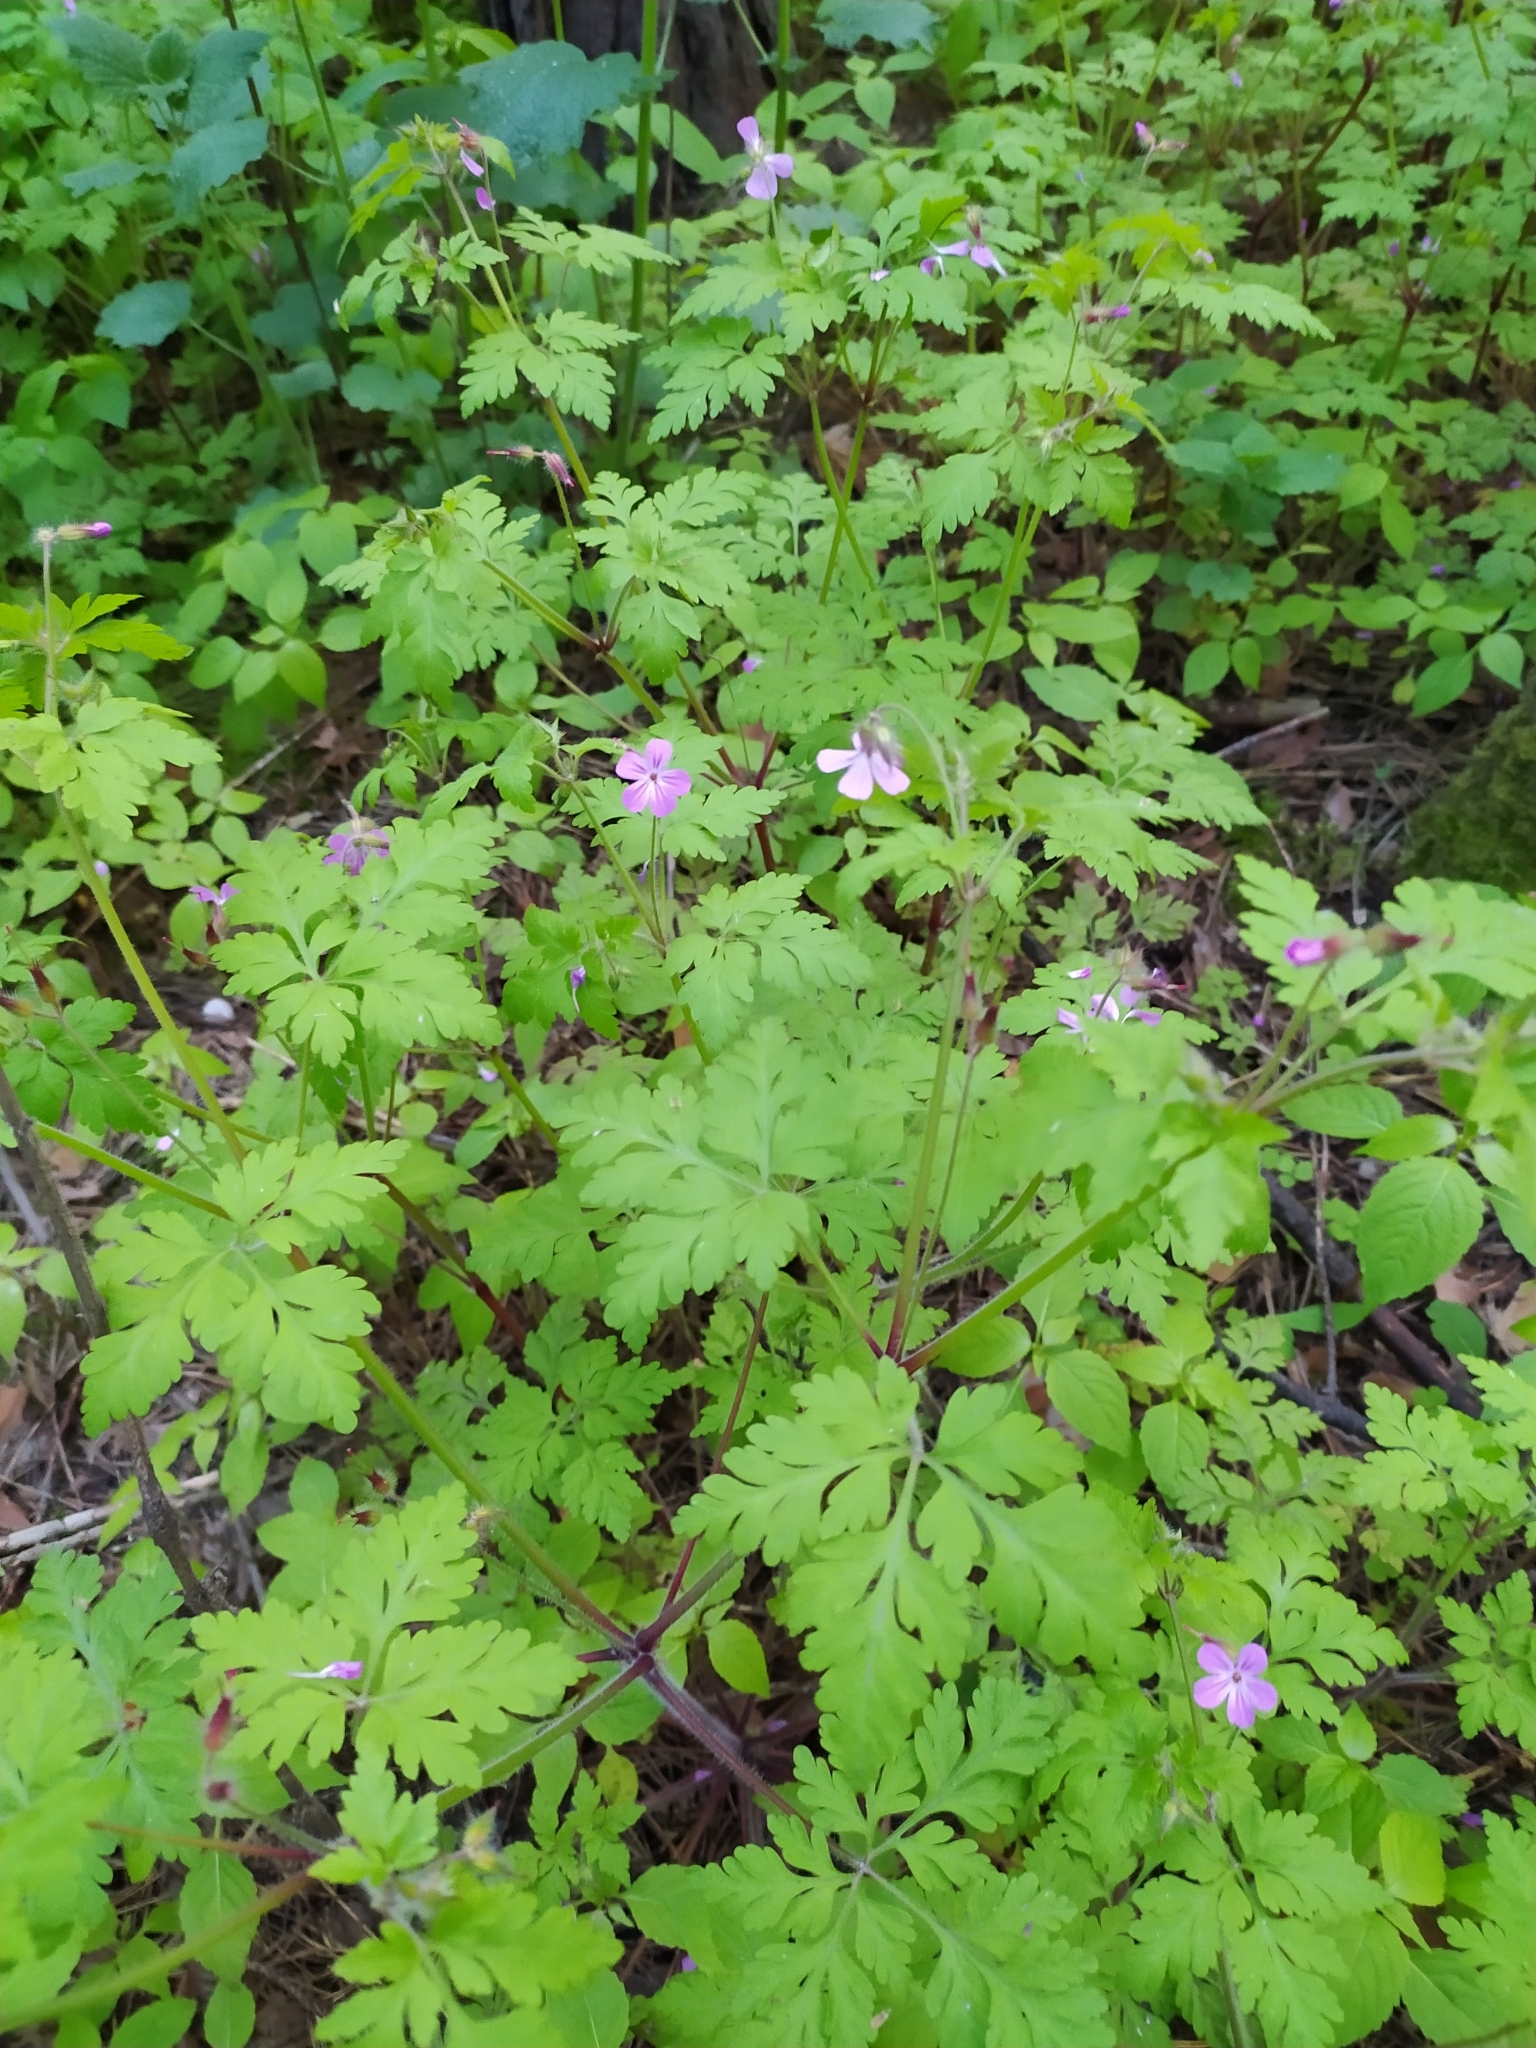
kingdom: Plantae
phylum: Tracheophyta
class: Magnoliopsida
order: Geraniales
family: Geraniaceae
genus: Geranium
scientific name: Geranium robertianum
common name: Herb-robert
